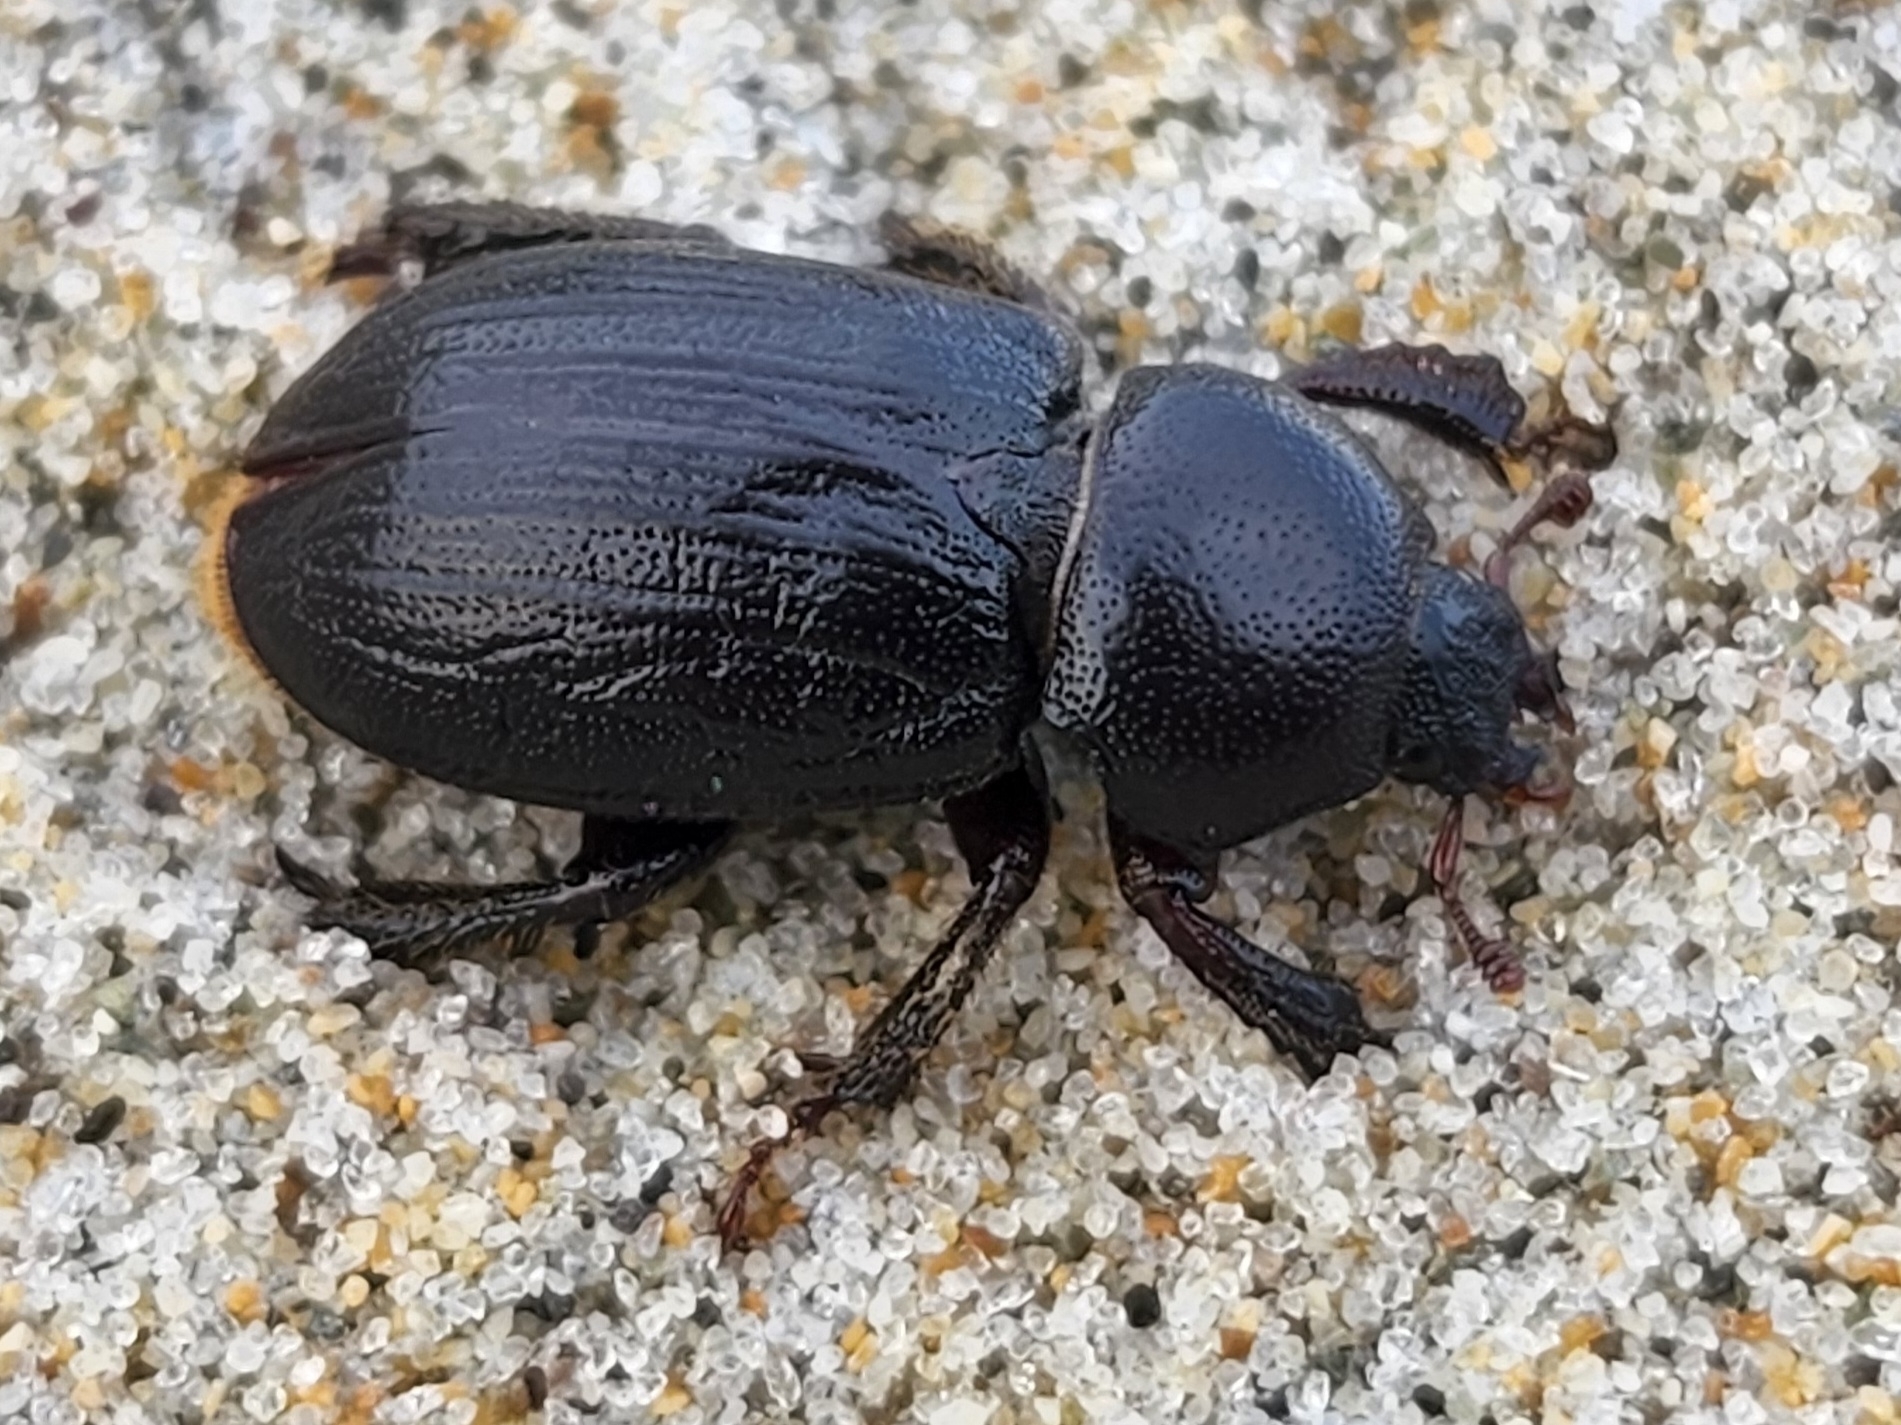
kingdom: Animalia
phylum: Arthropoda
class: Insecta
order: Coleoptera
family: Lucanidae
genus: Platyceroides
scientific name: Platyceroides keeni
